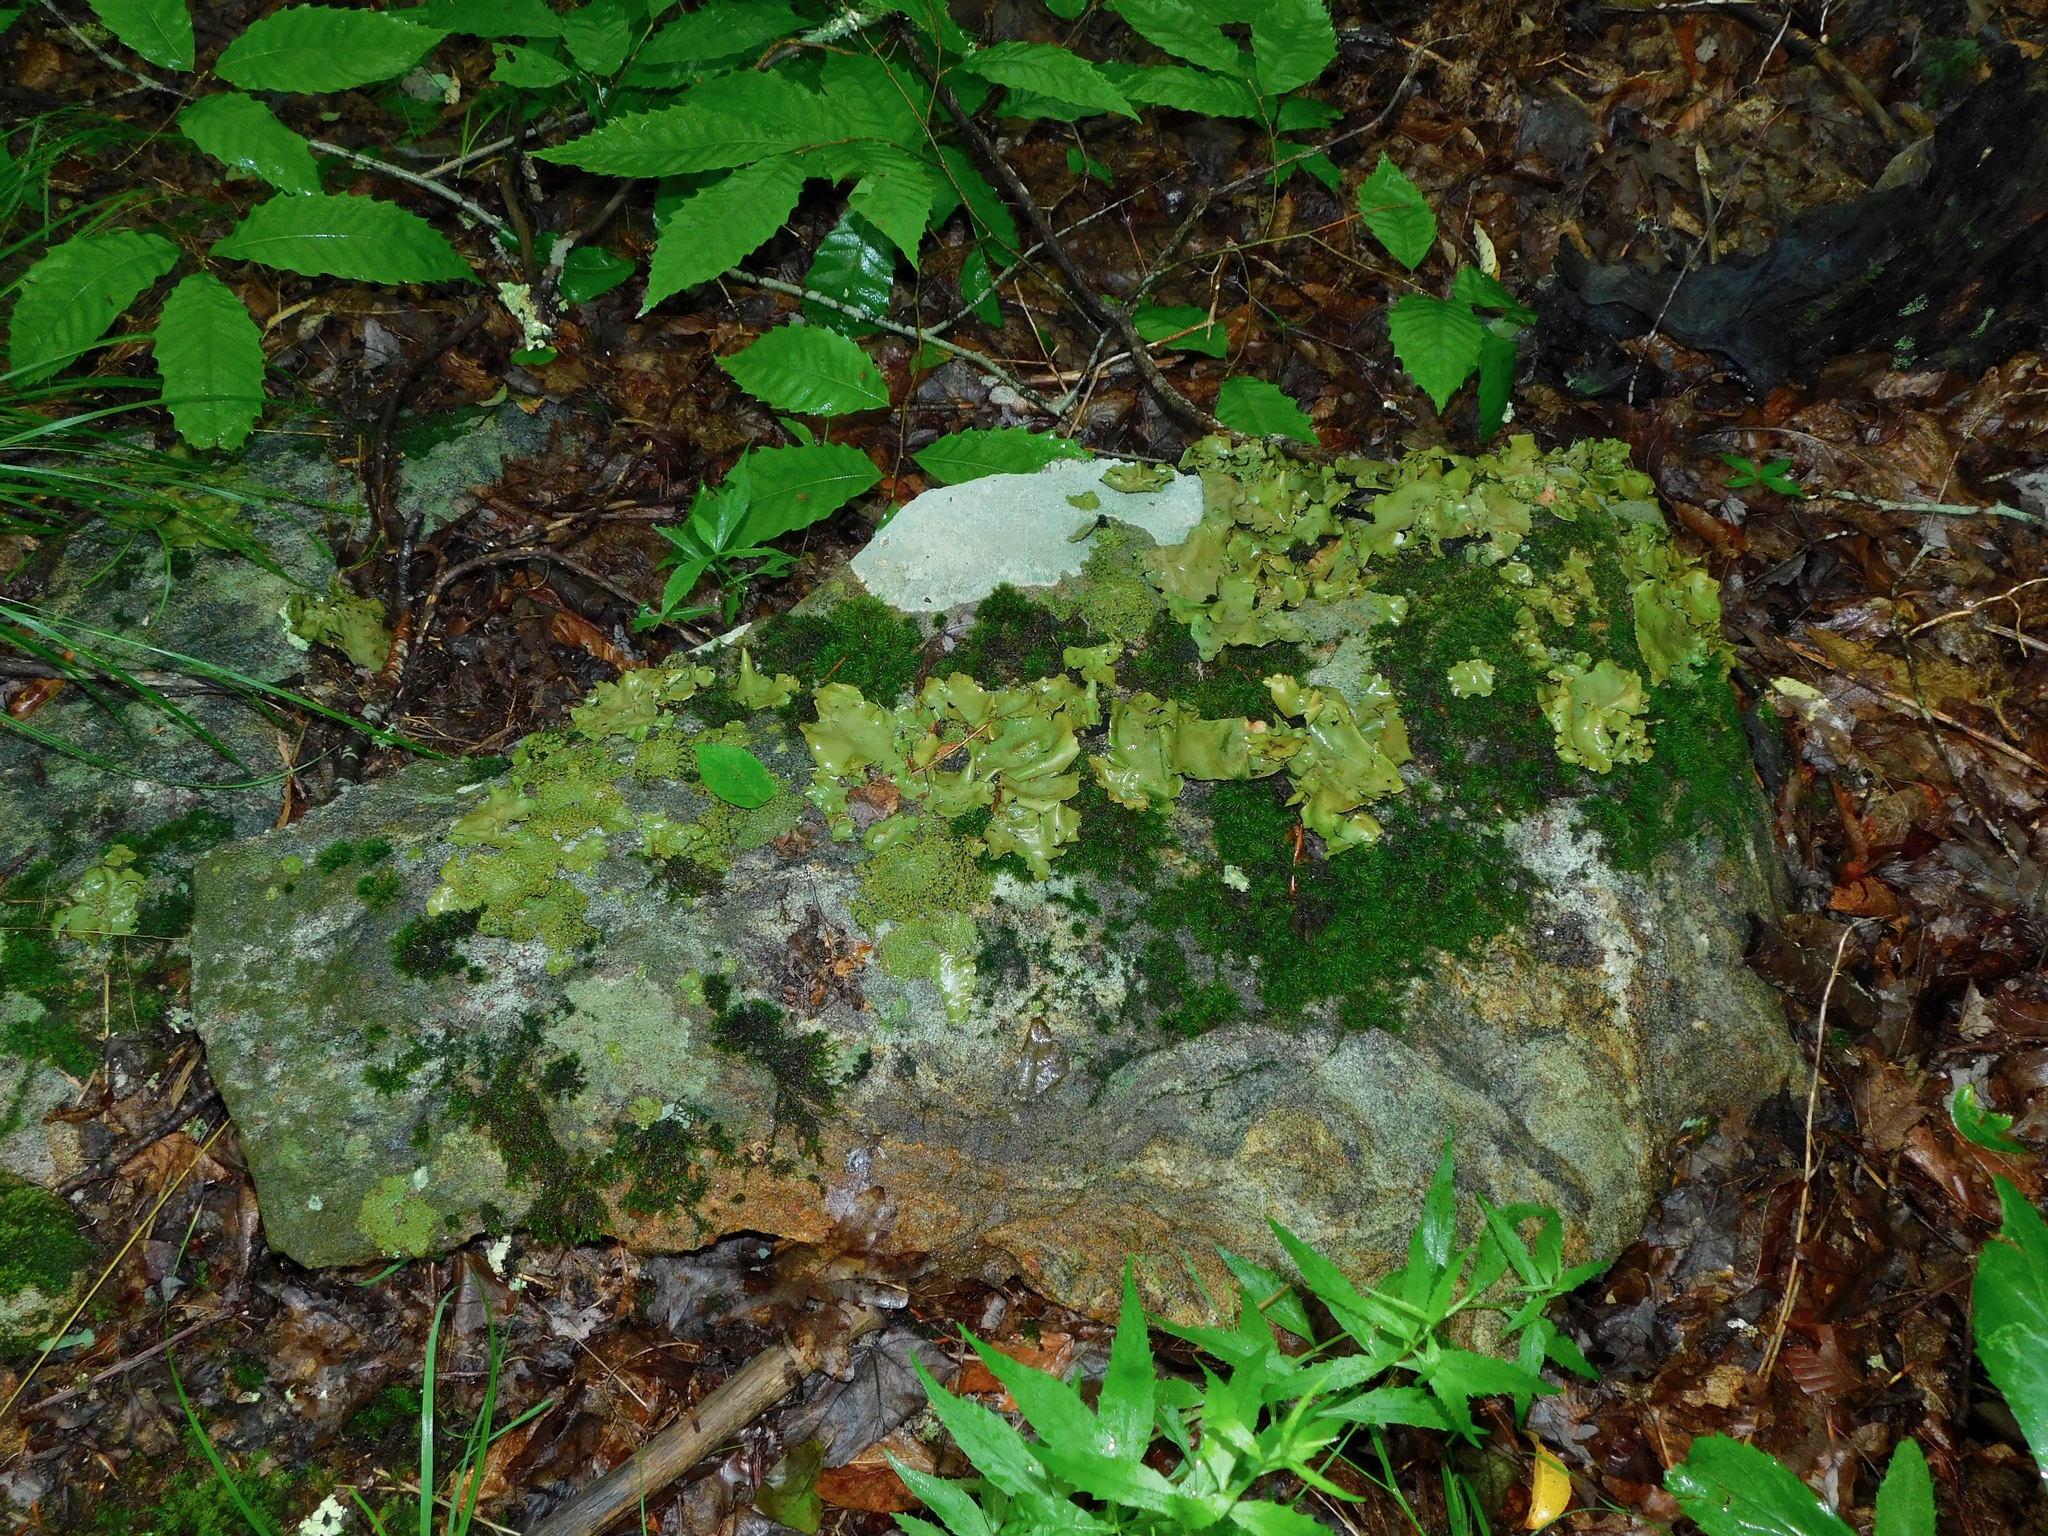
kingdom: Fungi
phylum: Ascomycota
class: Lecanoromycetes
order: Umbilicariales
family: Umbilicariaceae
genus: Lasallia
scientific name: Lasallia papulosa
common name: Common toadskin lichen
